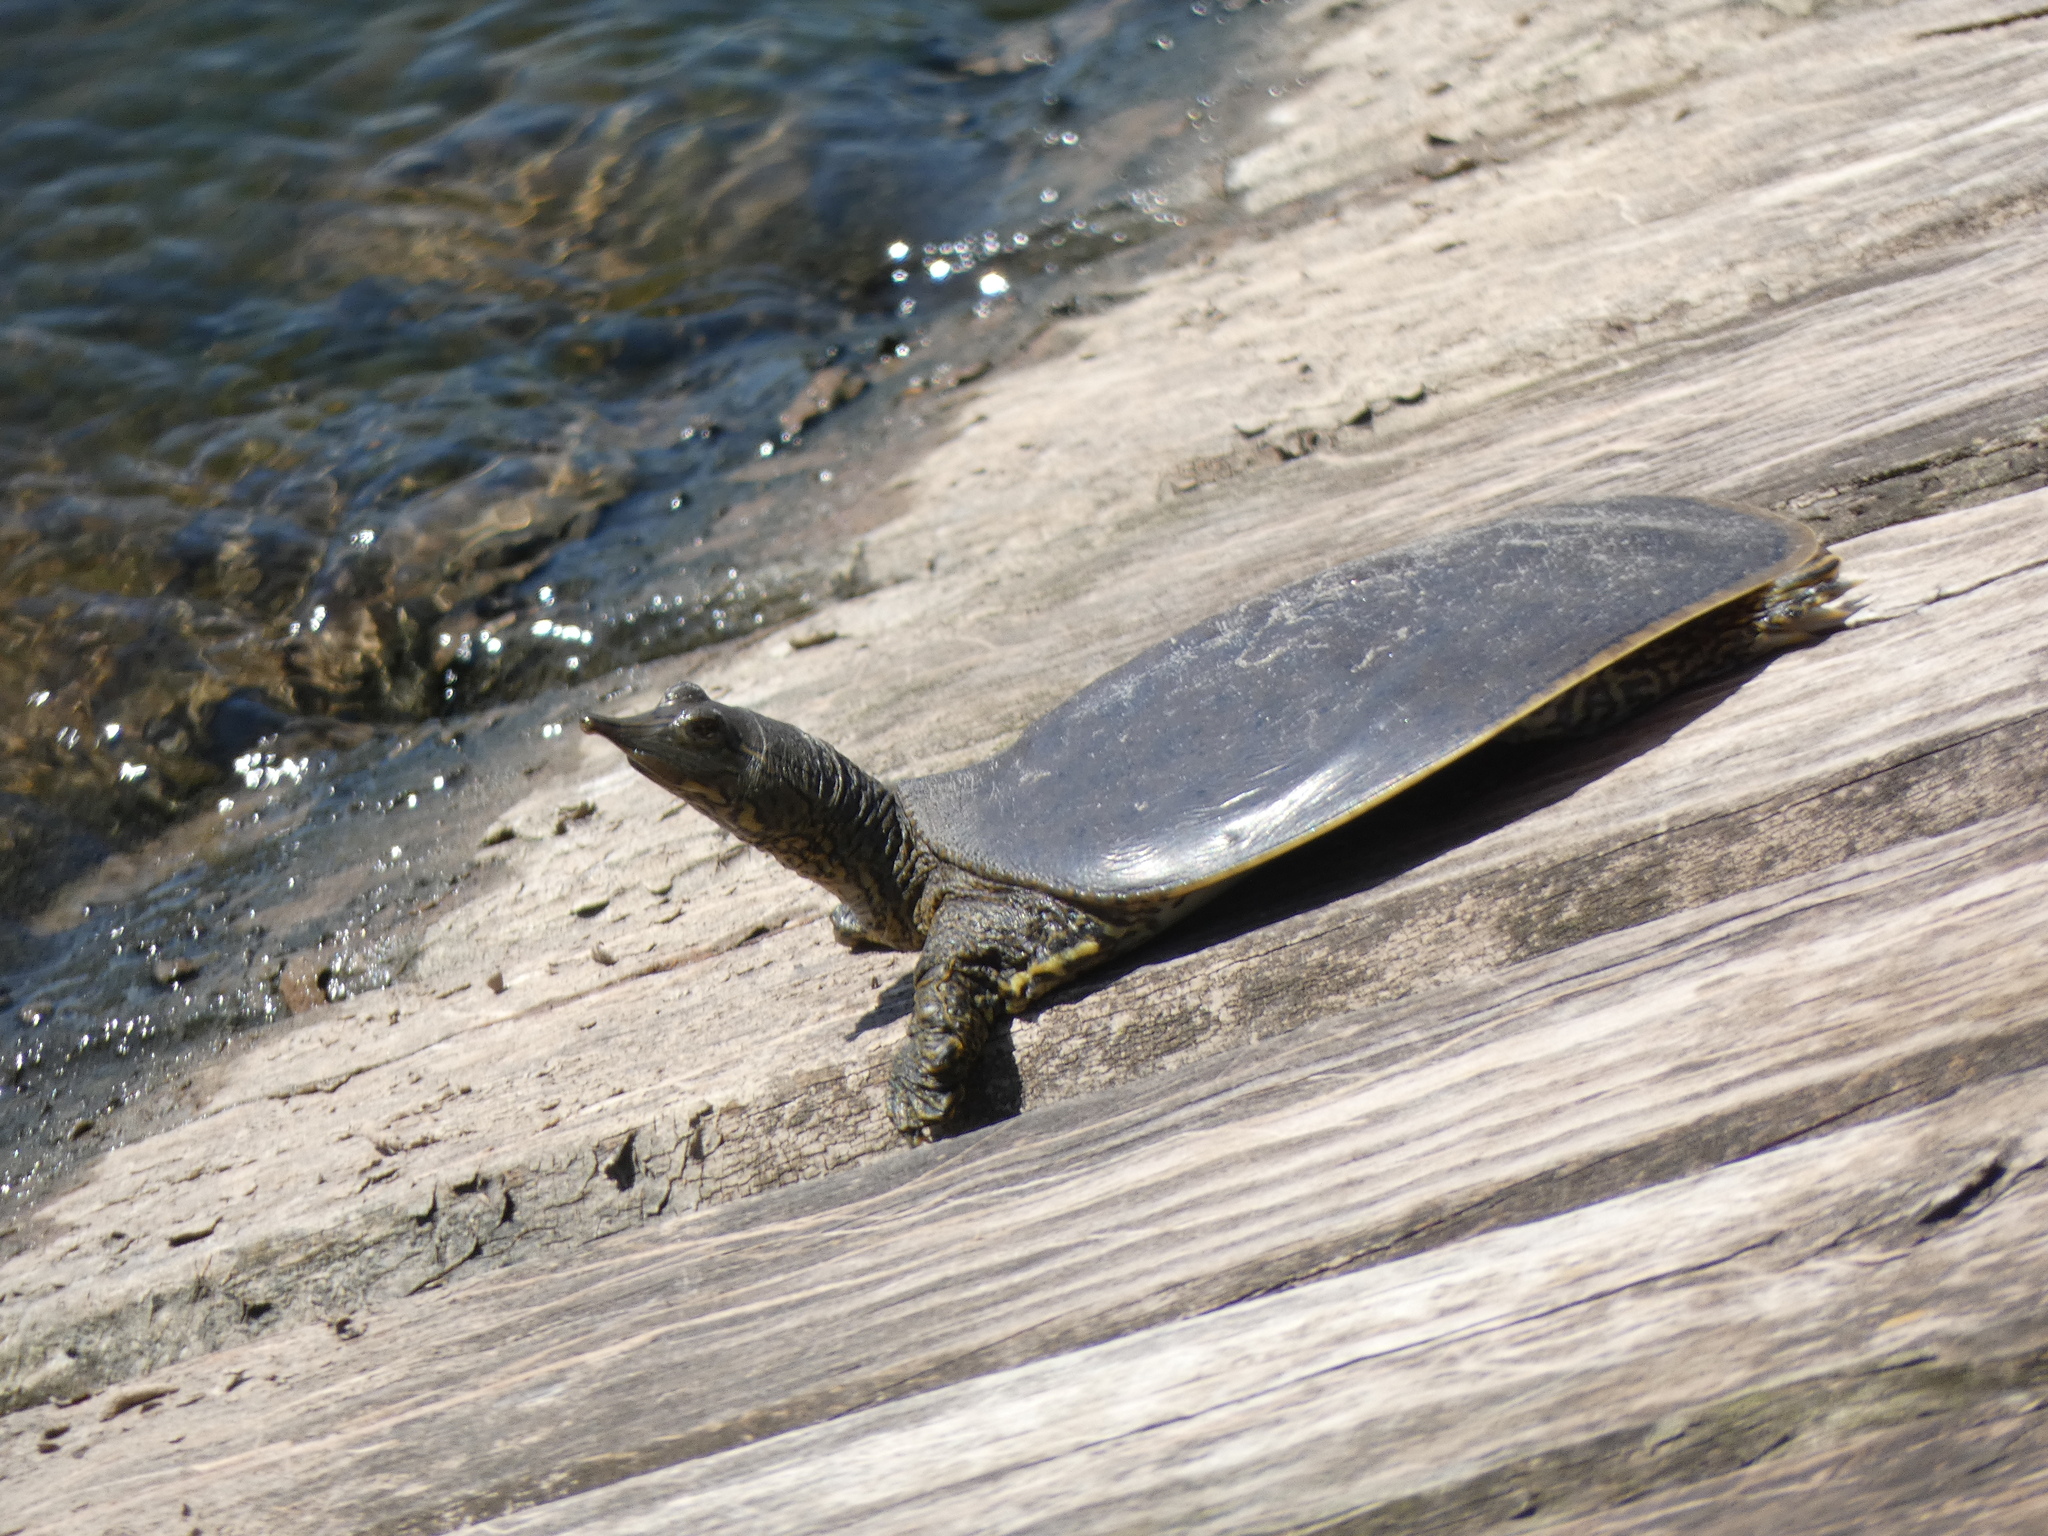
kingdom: Animalia
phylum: Chordata
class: Testudines
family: Trionychidae
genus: Apalone
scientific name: Apalone spinifera
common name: Spiny softshell turtle
